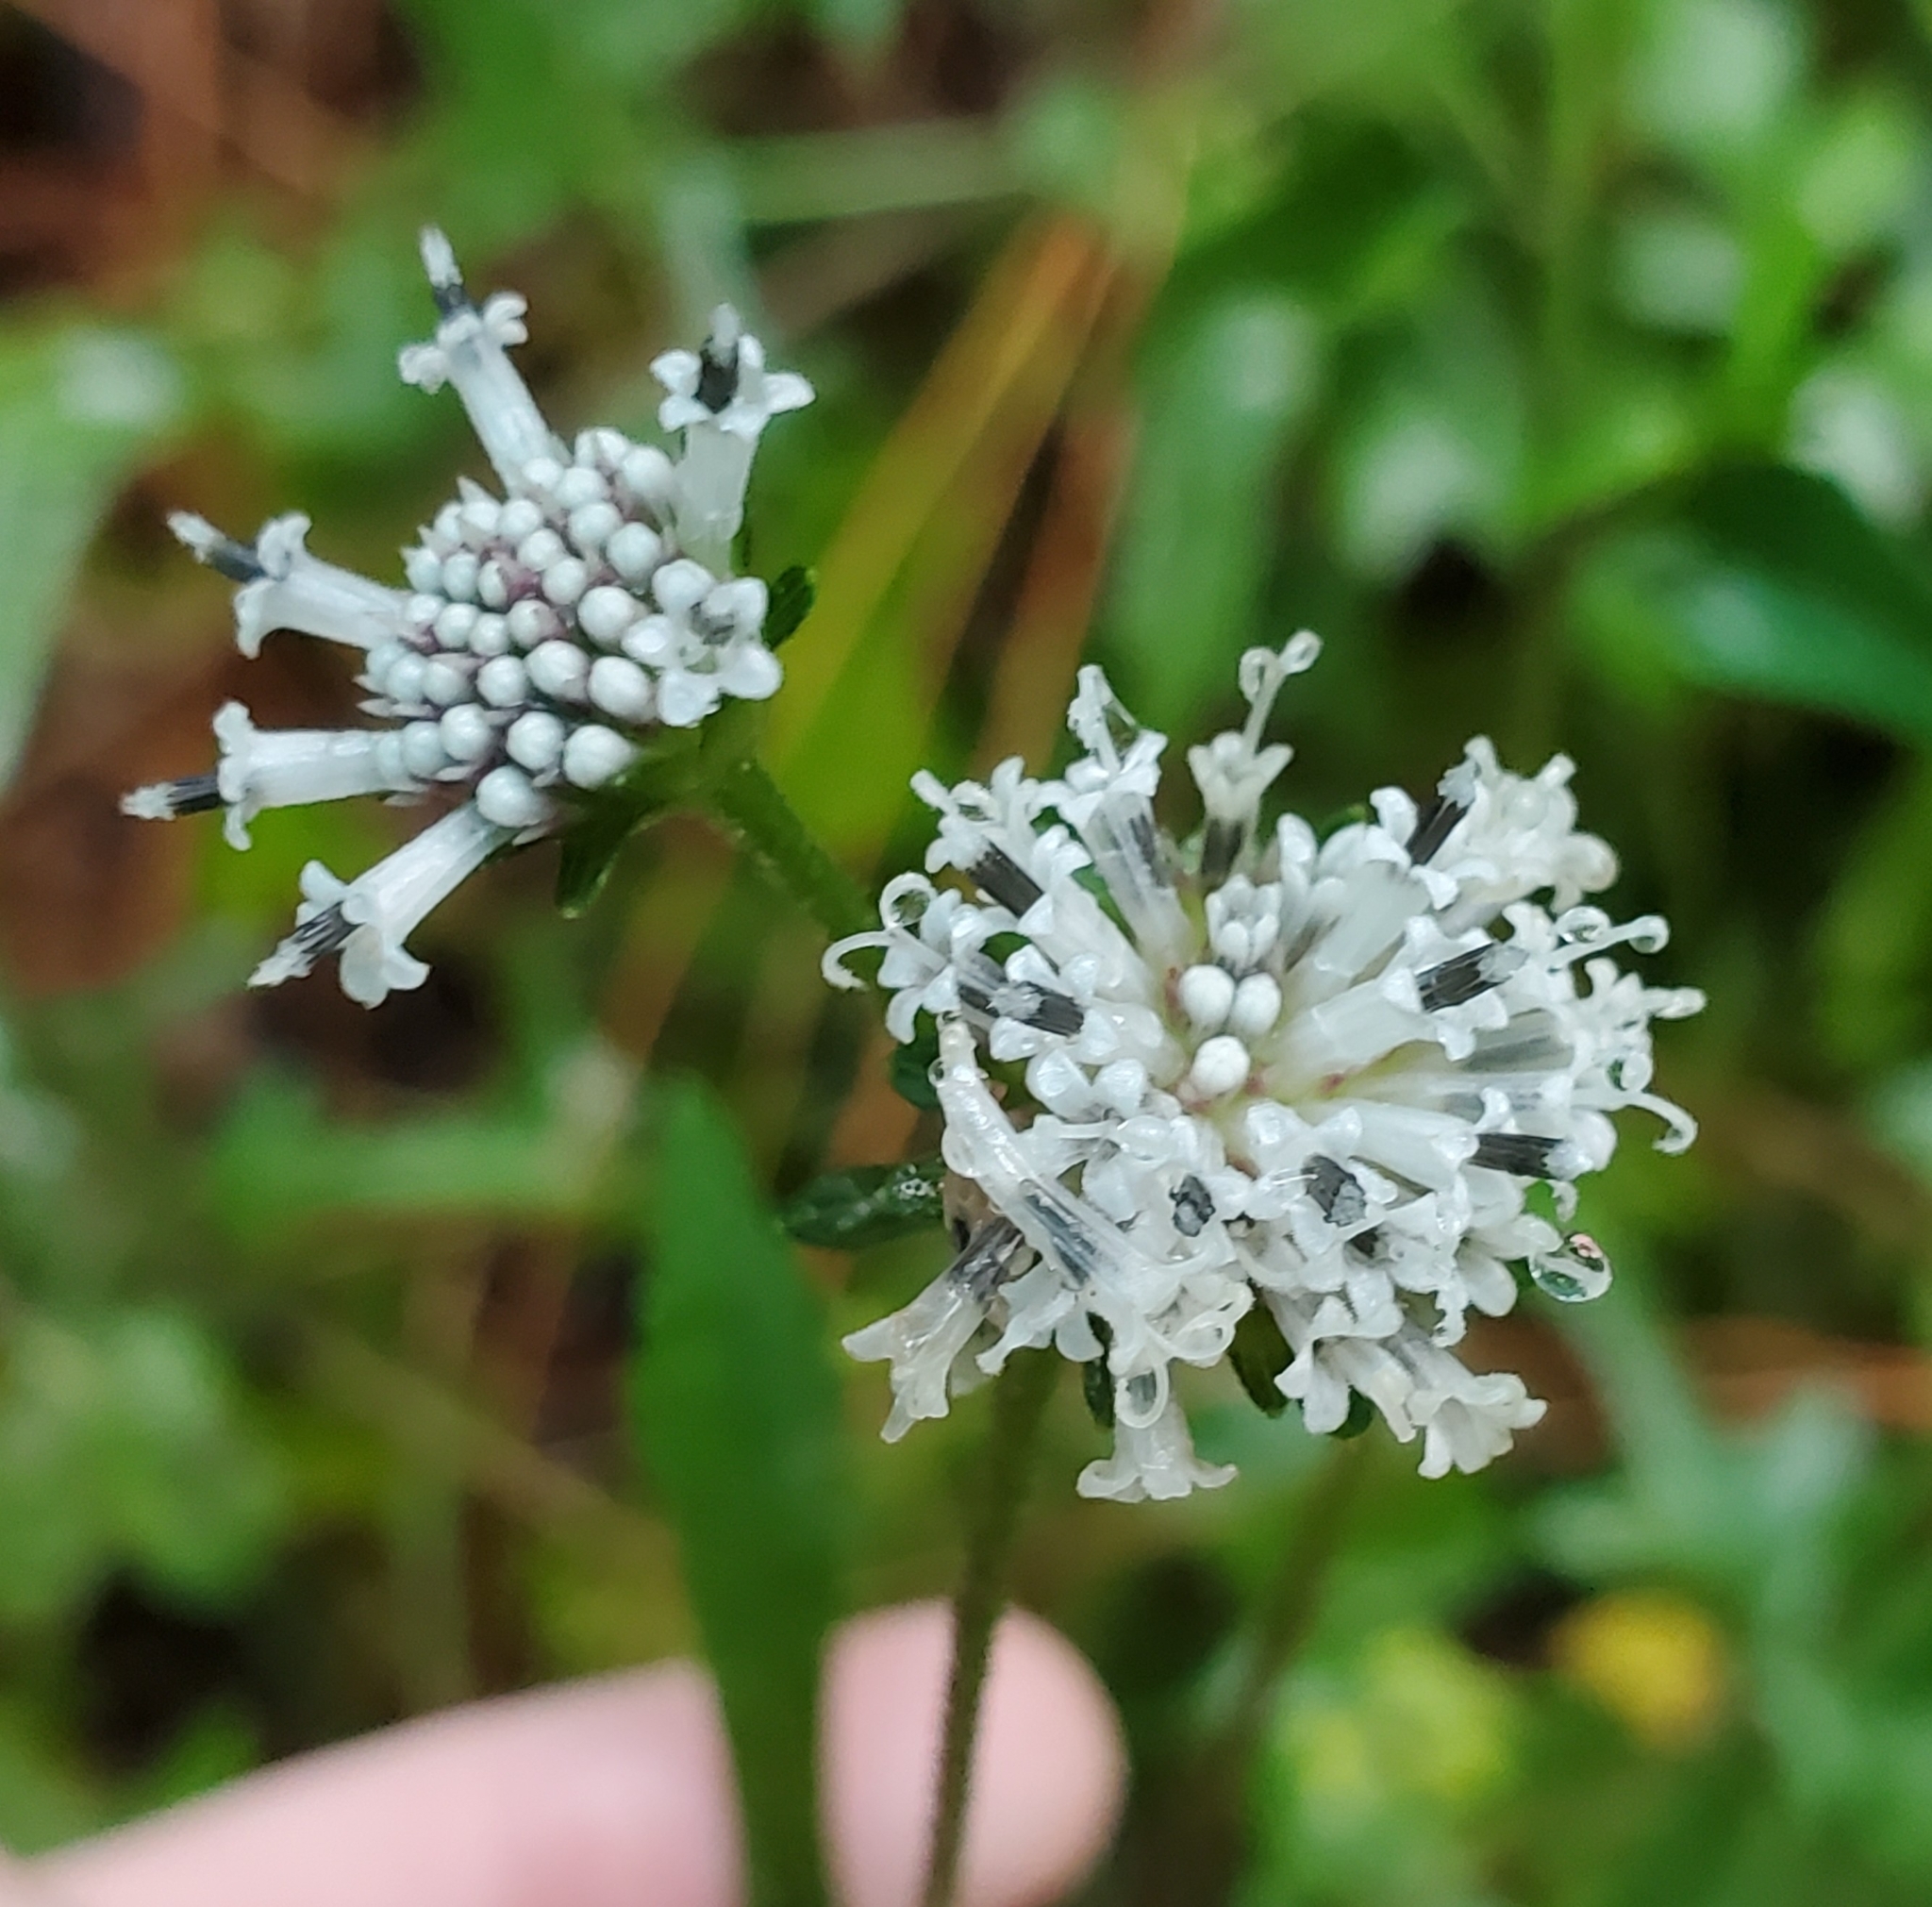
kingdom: Plantae
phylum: Tracheophyta
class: Magnoliopsida
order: Asterales
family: Asteraceae
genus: Melanthera
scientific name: Melanthera nivea
